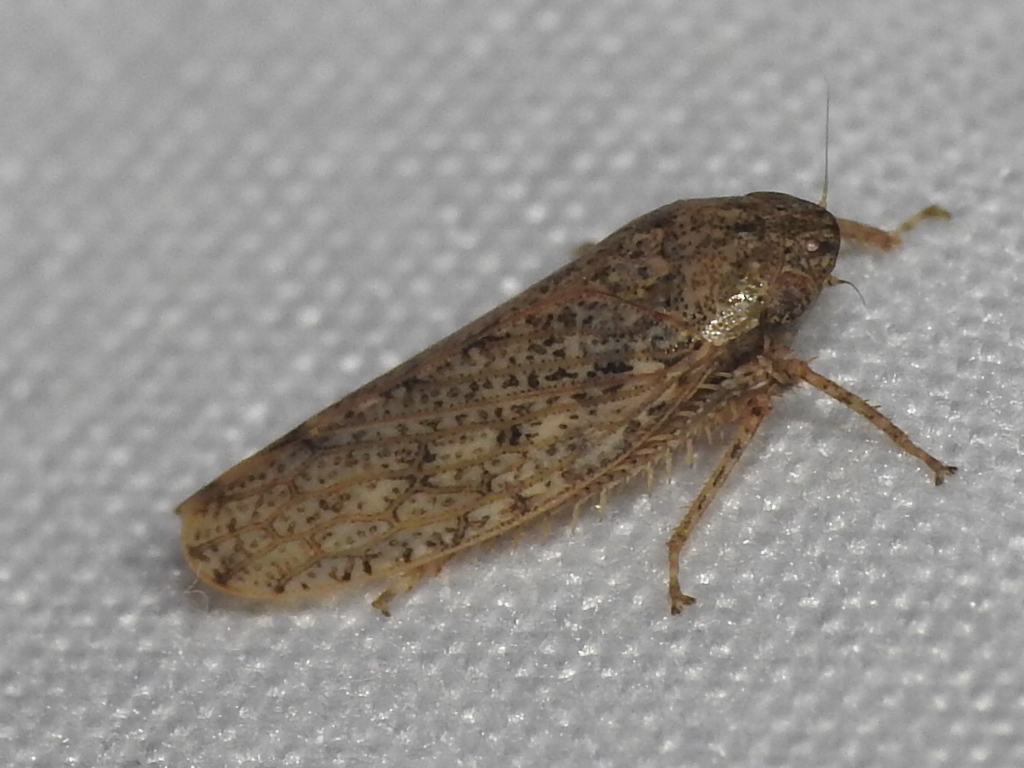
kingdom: Animalia
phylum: Arthropoda
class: Insecta
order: Hemiptera
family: Cicadellidae
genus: Curtara
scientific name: Curtara insularis
